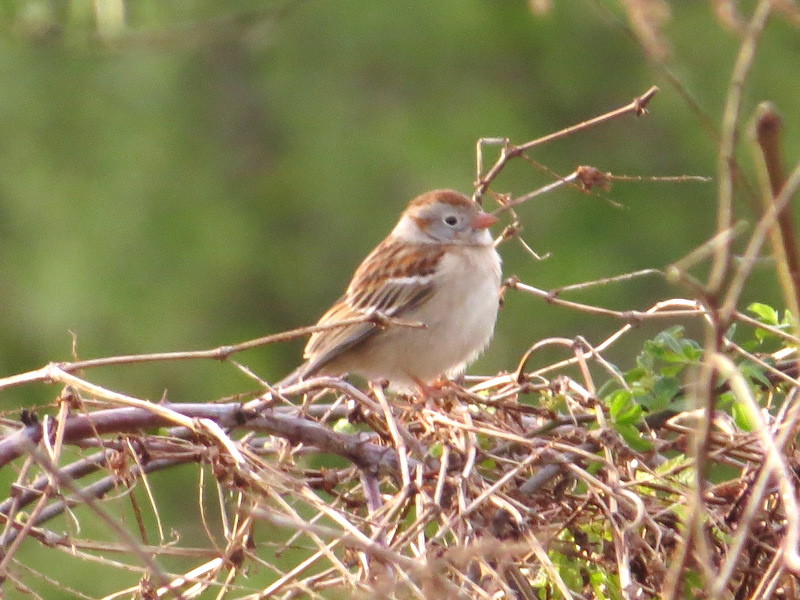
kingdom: Animalia
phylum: Chordata
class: Aves
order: Passeriformes
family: Passerellidae
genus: Spizella
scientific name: Spizella pusilla
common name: Field sparrow
